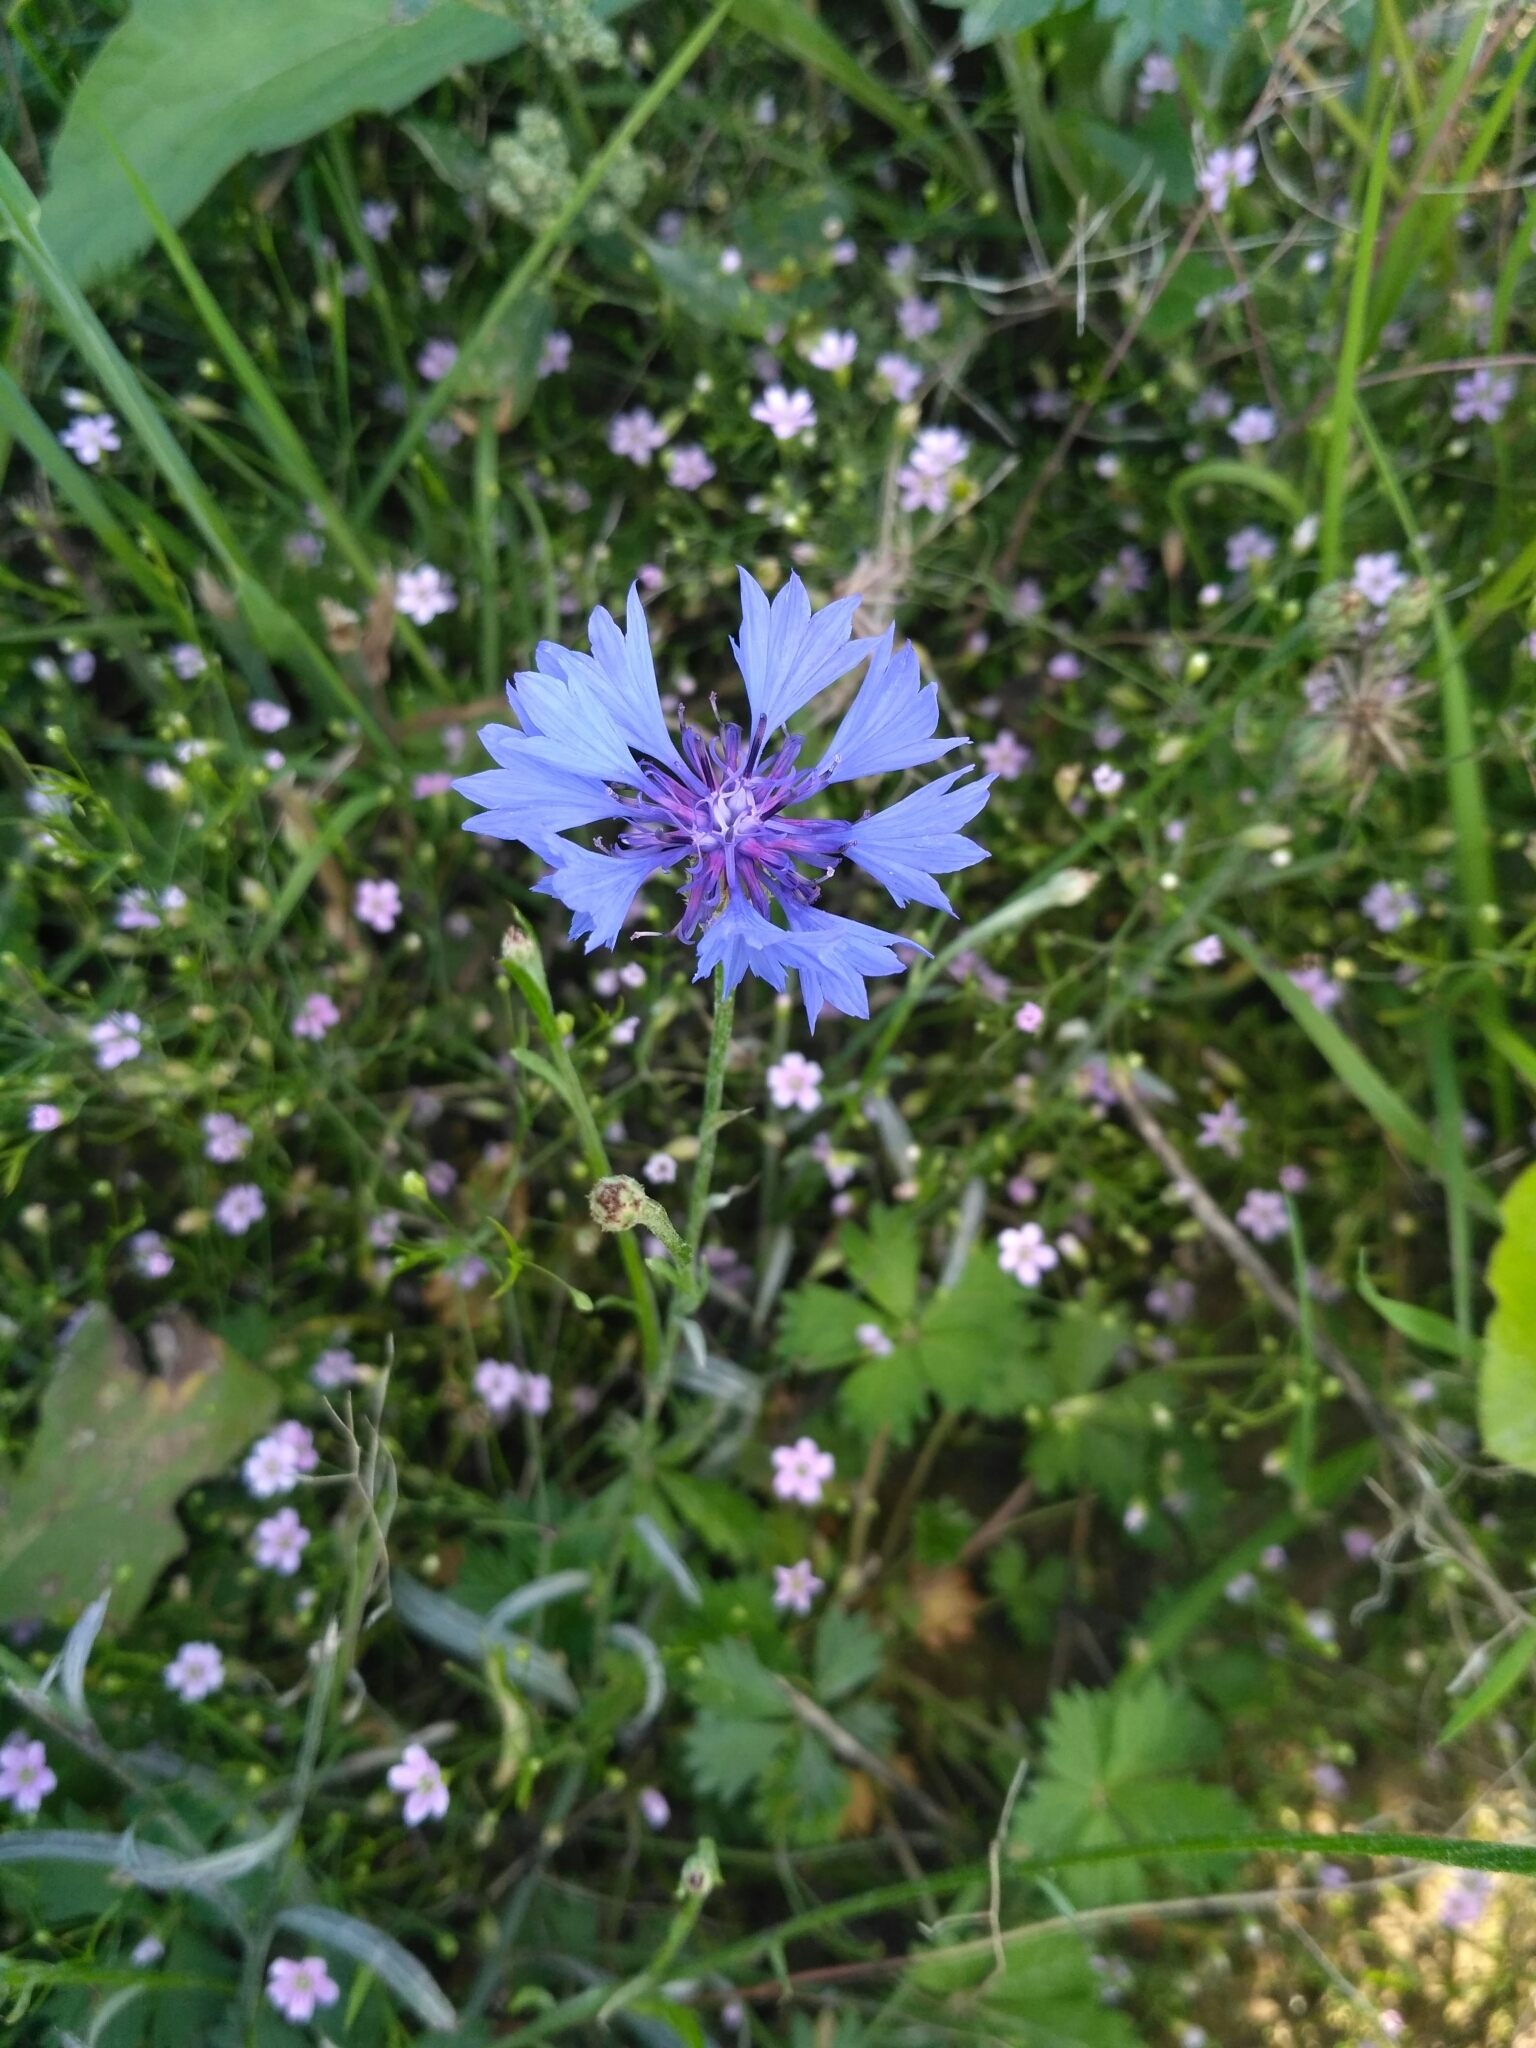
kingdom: Plantae
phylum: Tracheophyta
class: Magnoliopsida
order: Asterales
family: Asteraceae
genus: Centaurea
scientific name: Centaurea cyanus
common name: Cornflower
